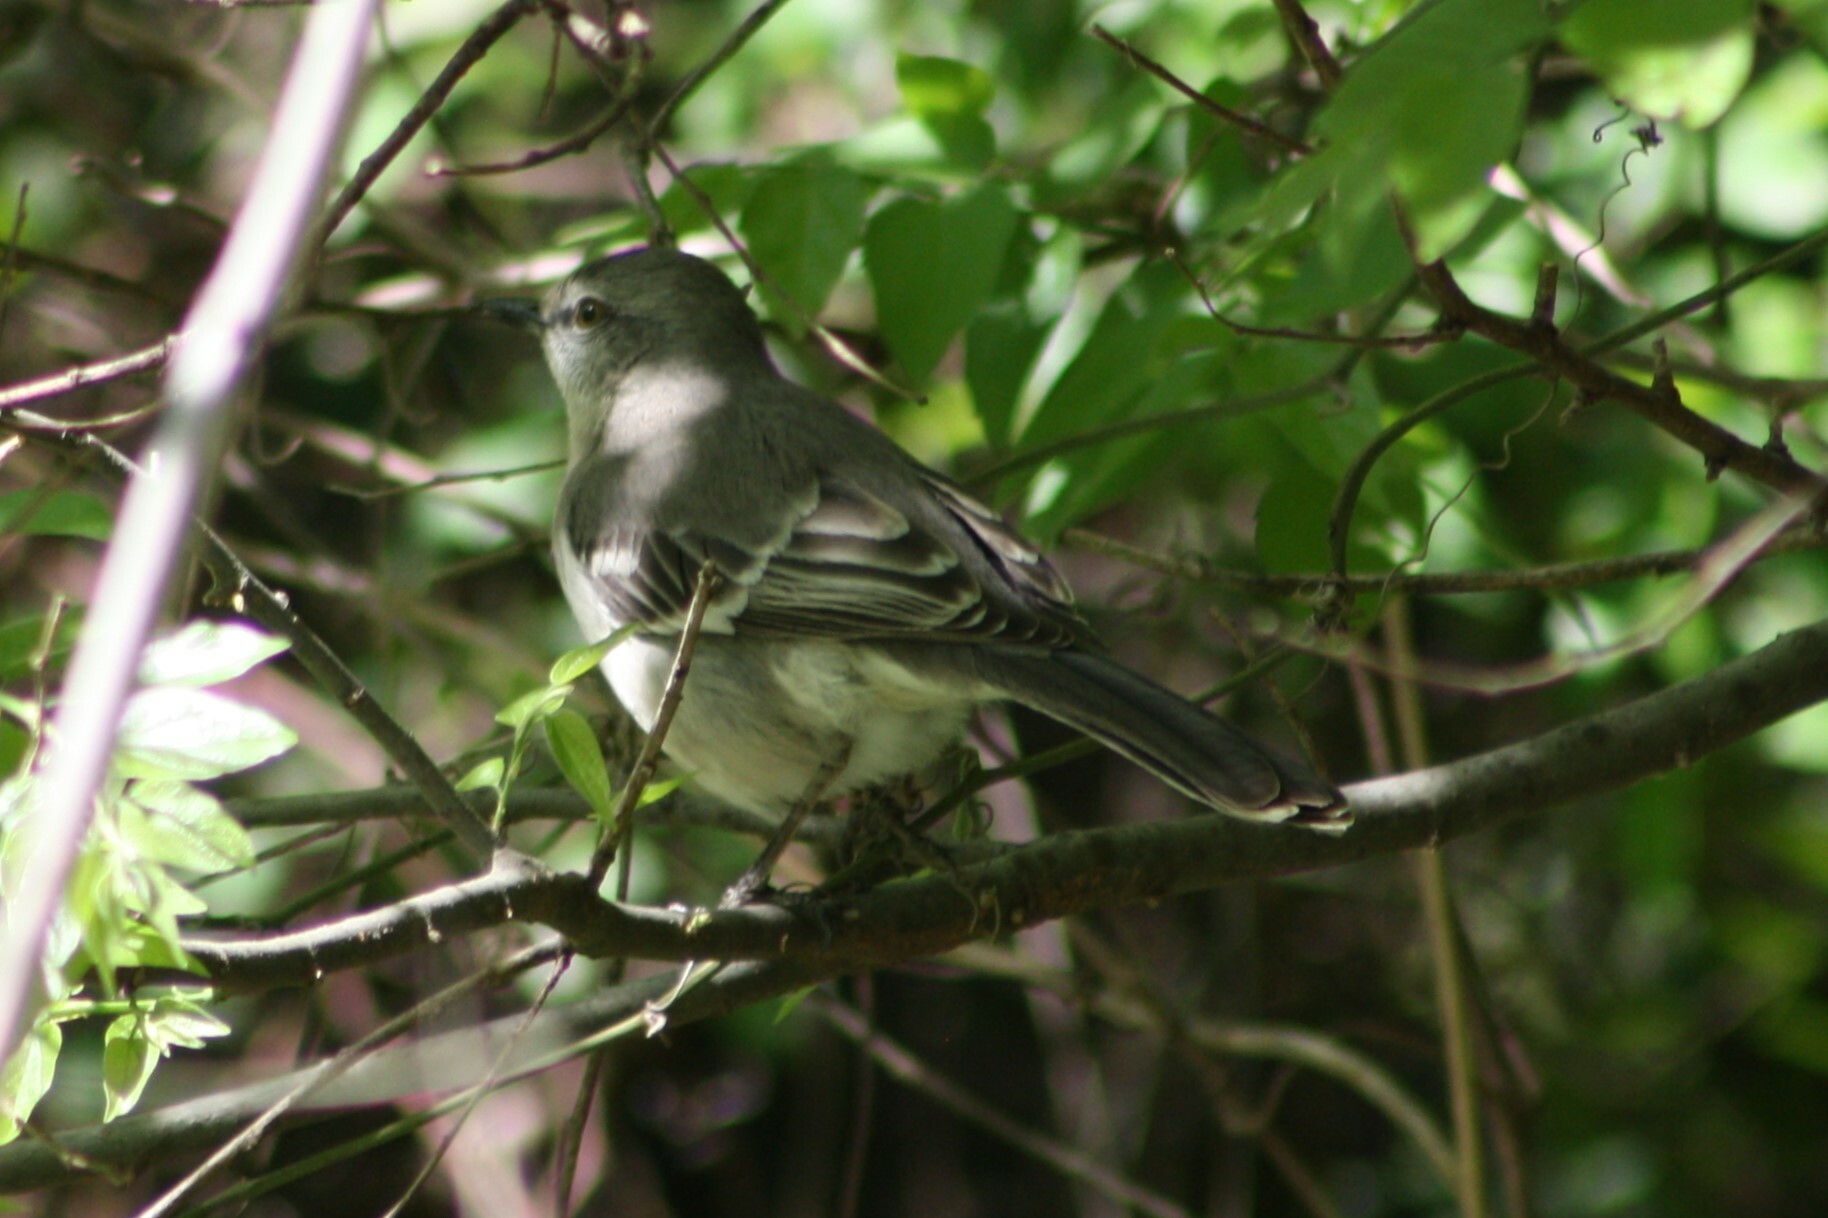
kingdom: Animalia
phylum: Chordata
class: Aves
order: Passeriformes
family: Mimidae
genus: Mimus
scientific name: Mimus polyglottos
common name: Northern mockingbird
